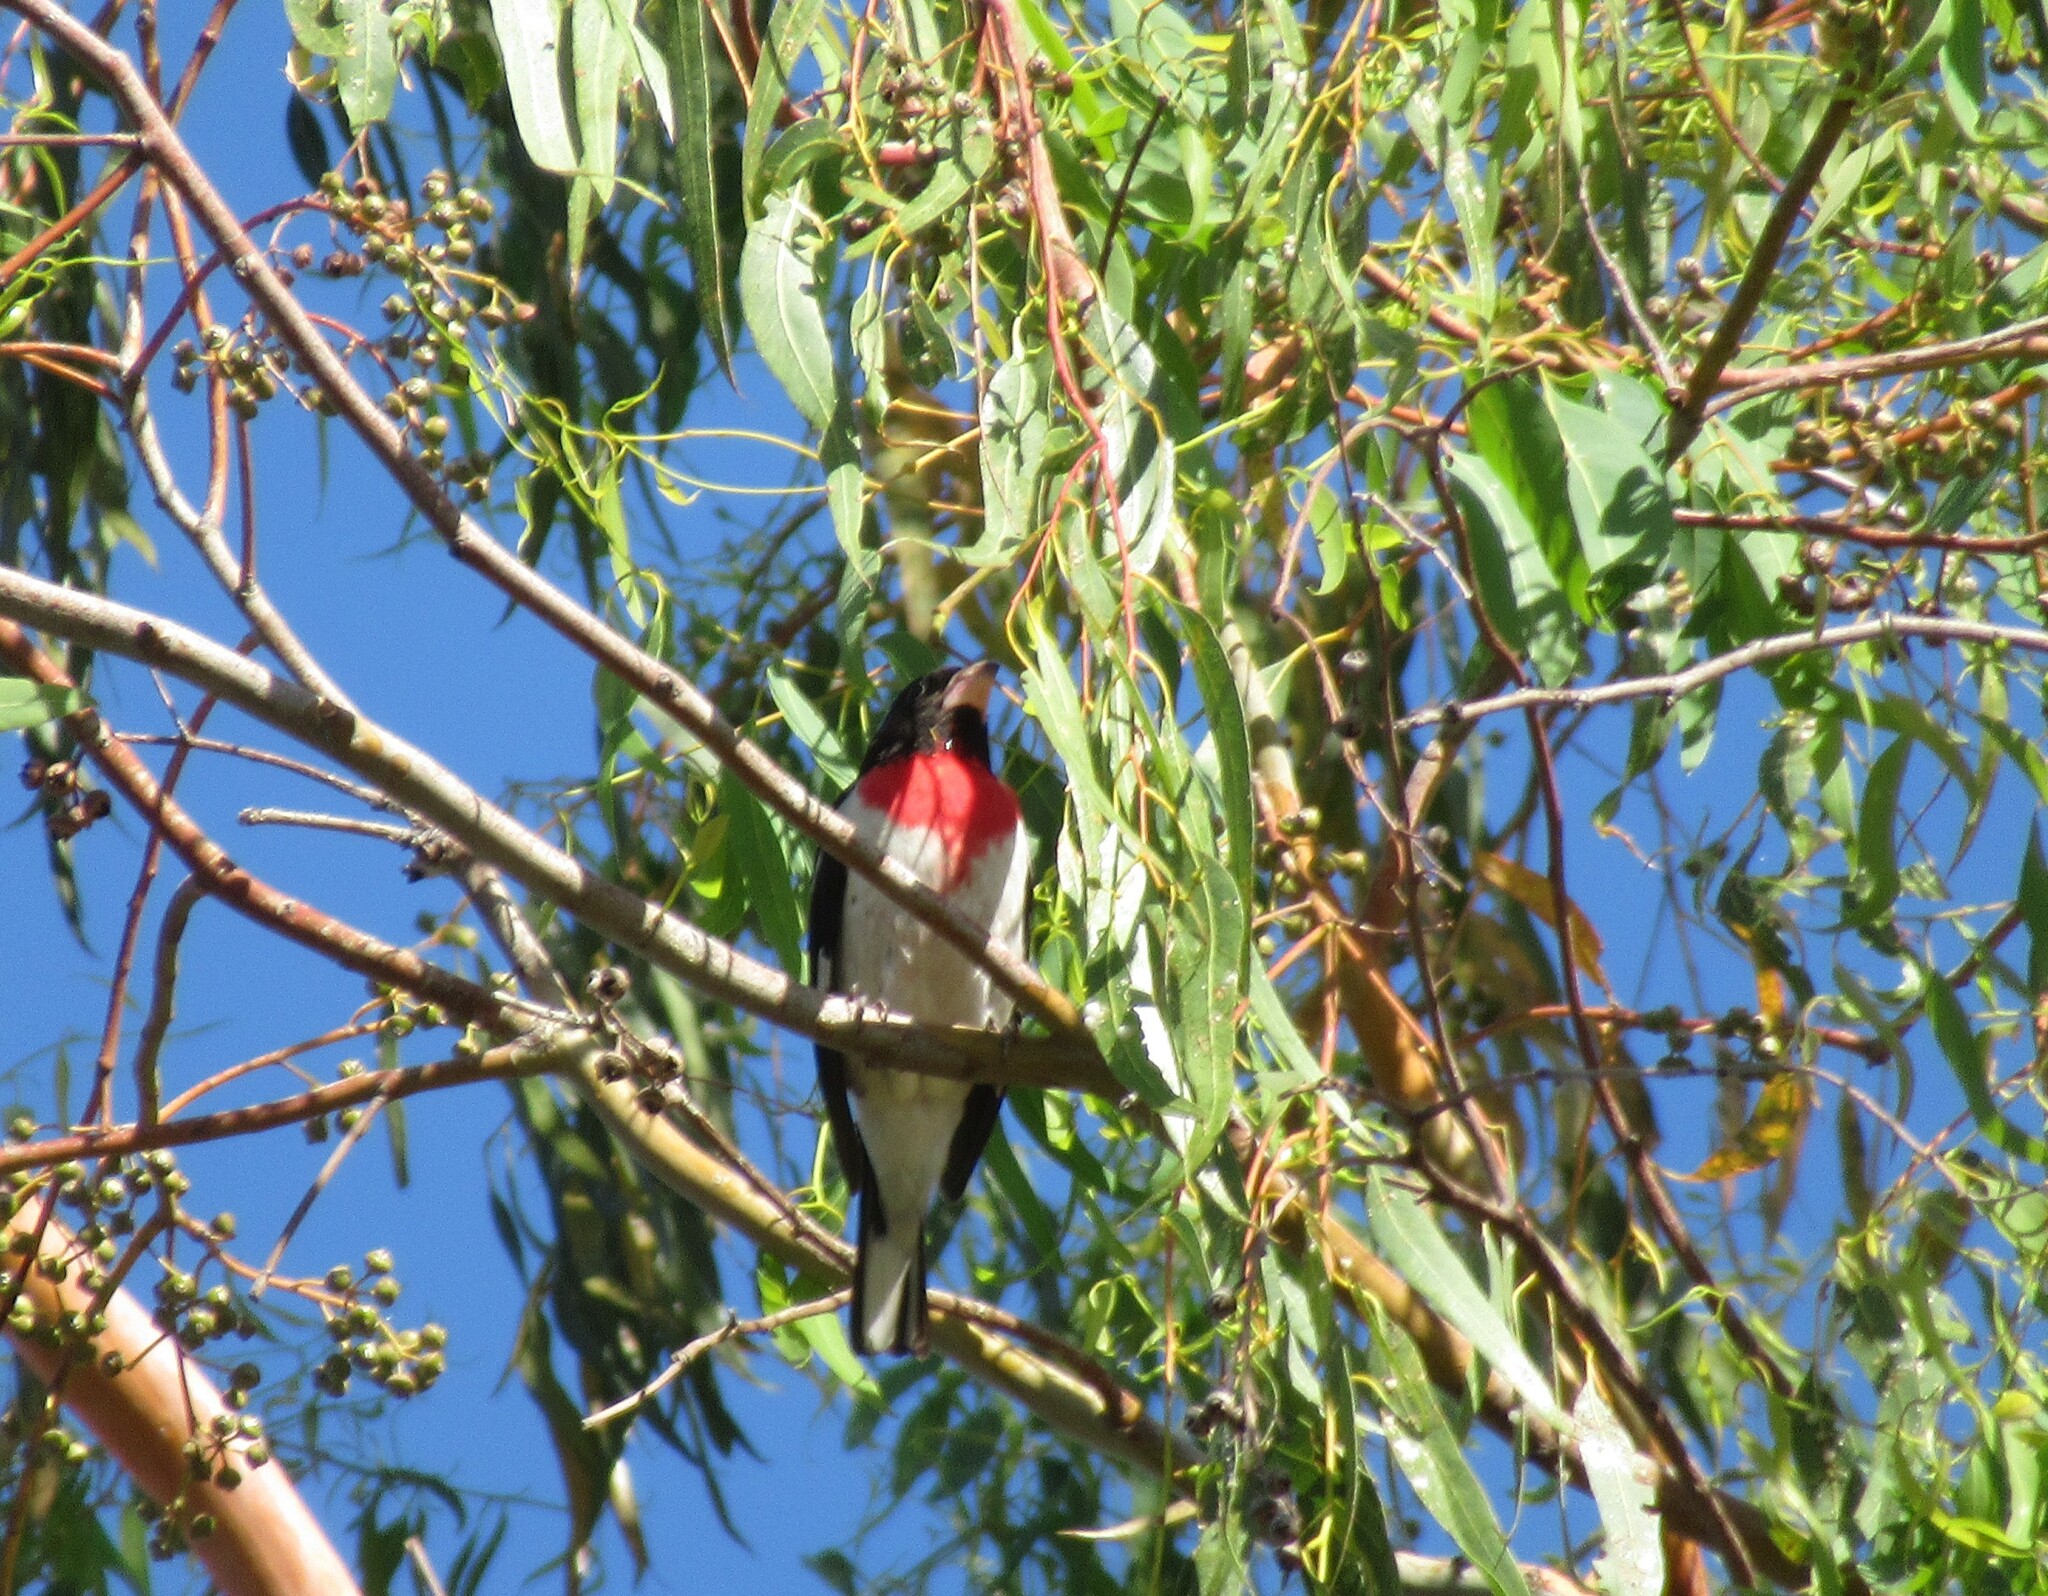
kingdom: Animalia
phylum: Chordata
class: Aves
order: Passeriformes
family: Cardinalidae
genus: Pheucticus
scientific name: Pheucticus ludovicianus
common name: Rose-breasted grosbeak
